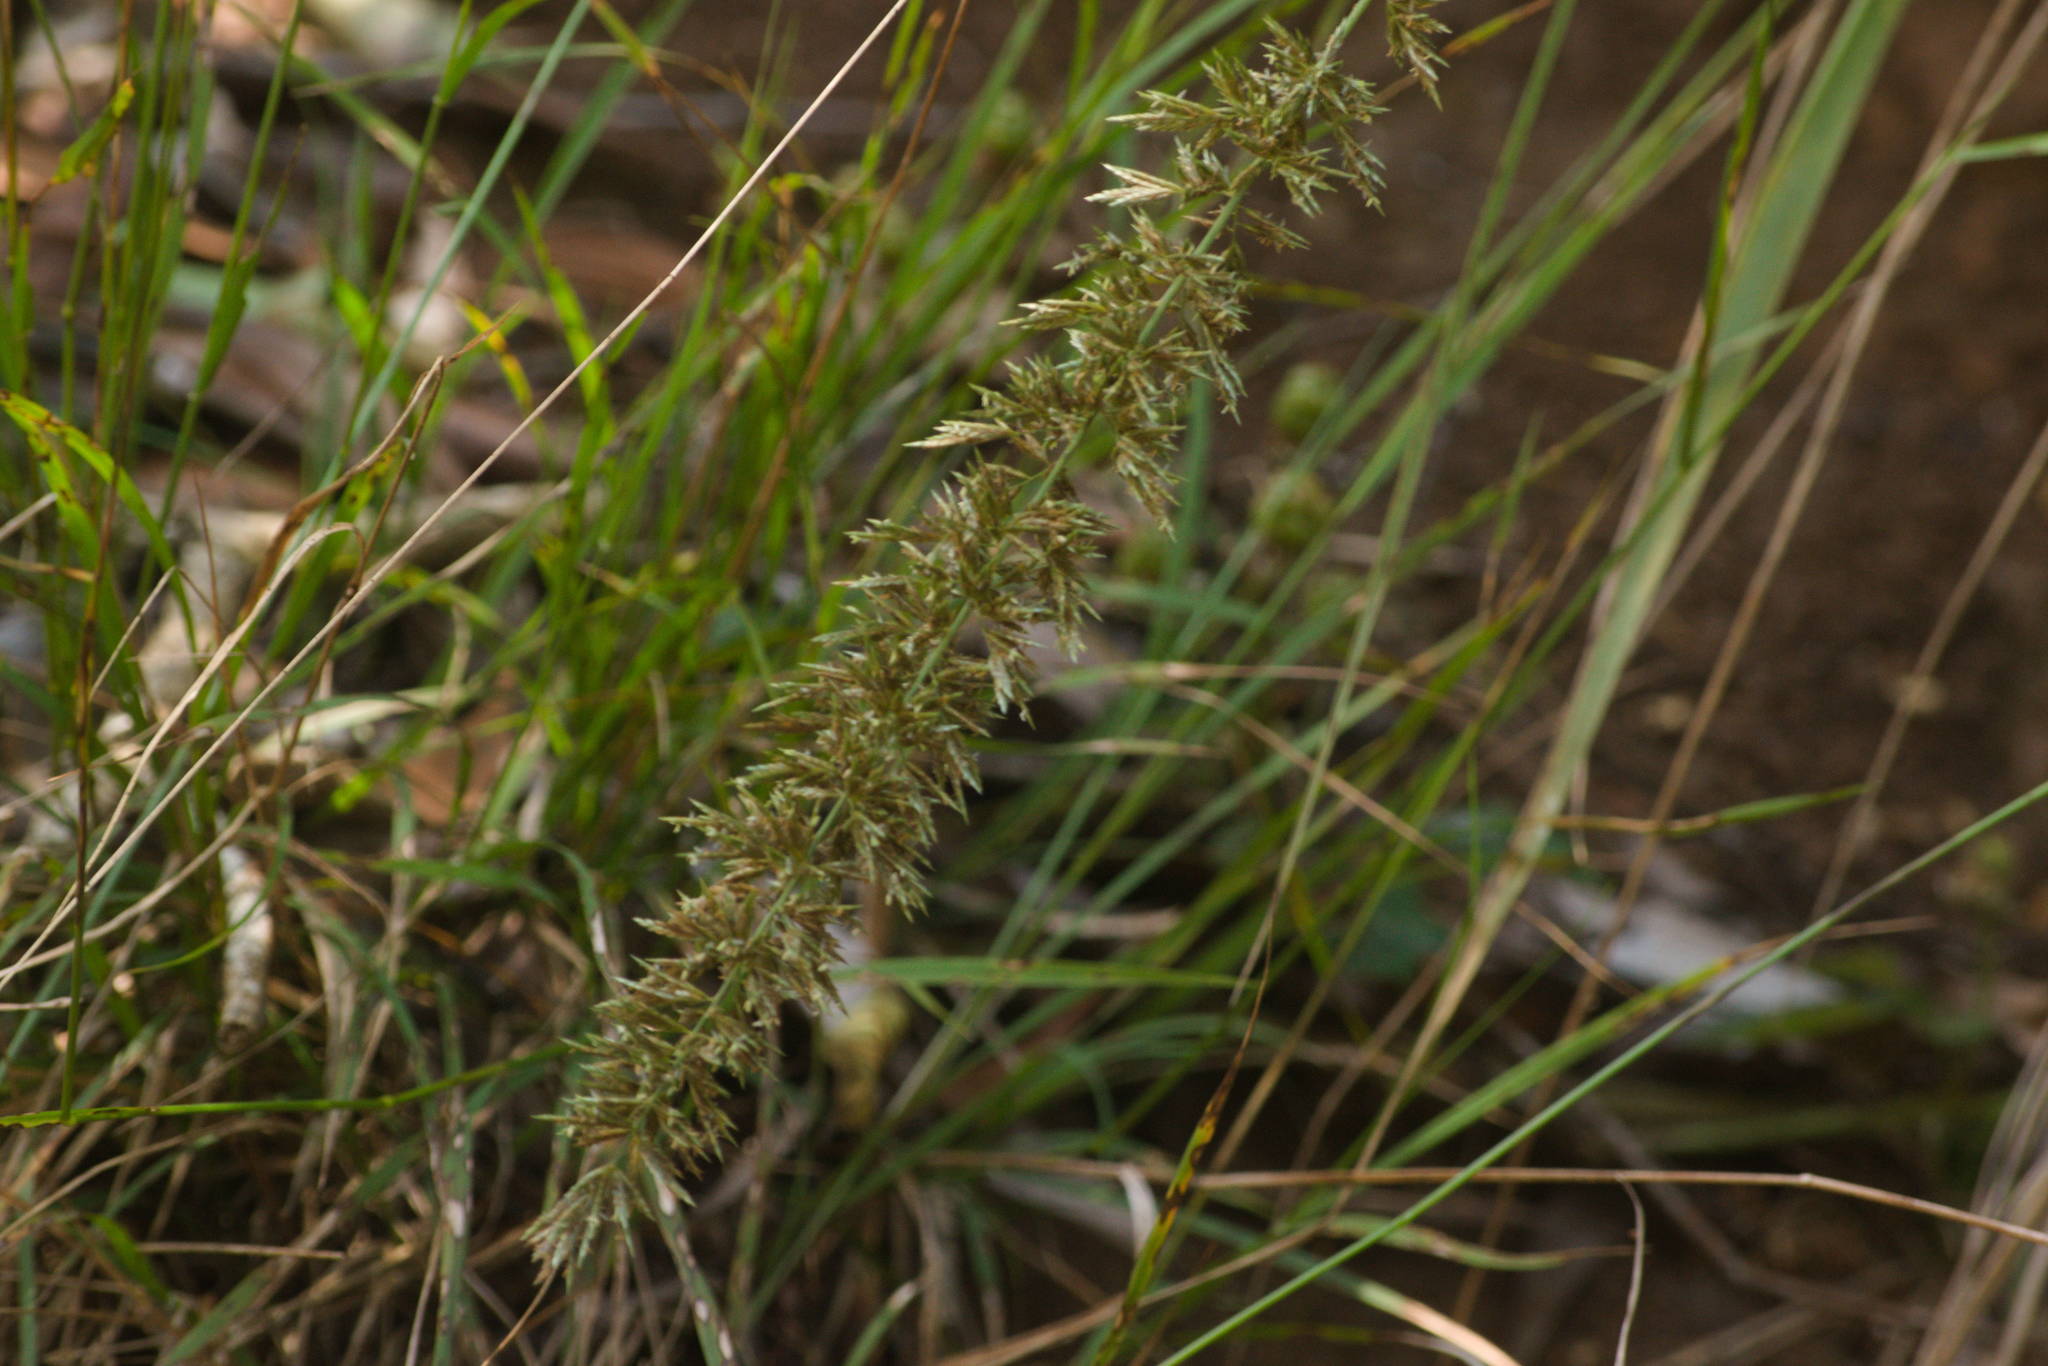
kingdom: Plantae
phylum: Tracheophyta
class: Liliopsida
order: Poales
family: Poaceae
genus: Eragrostis
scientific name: Eragrostis variabilis
